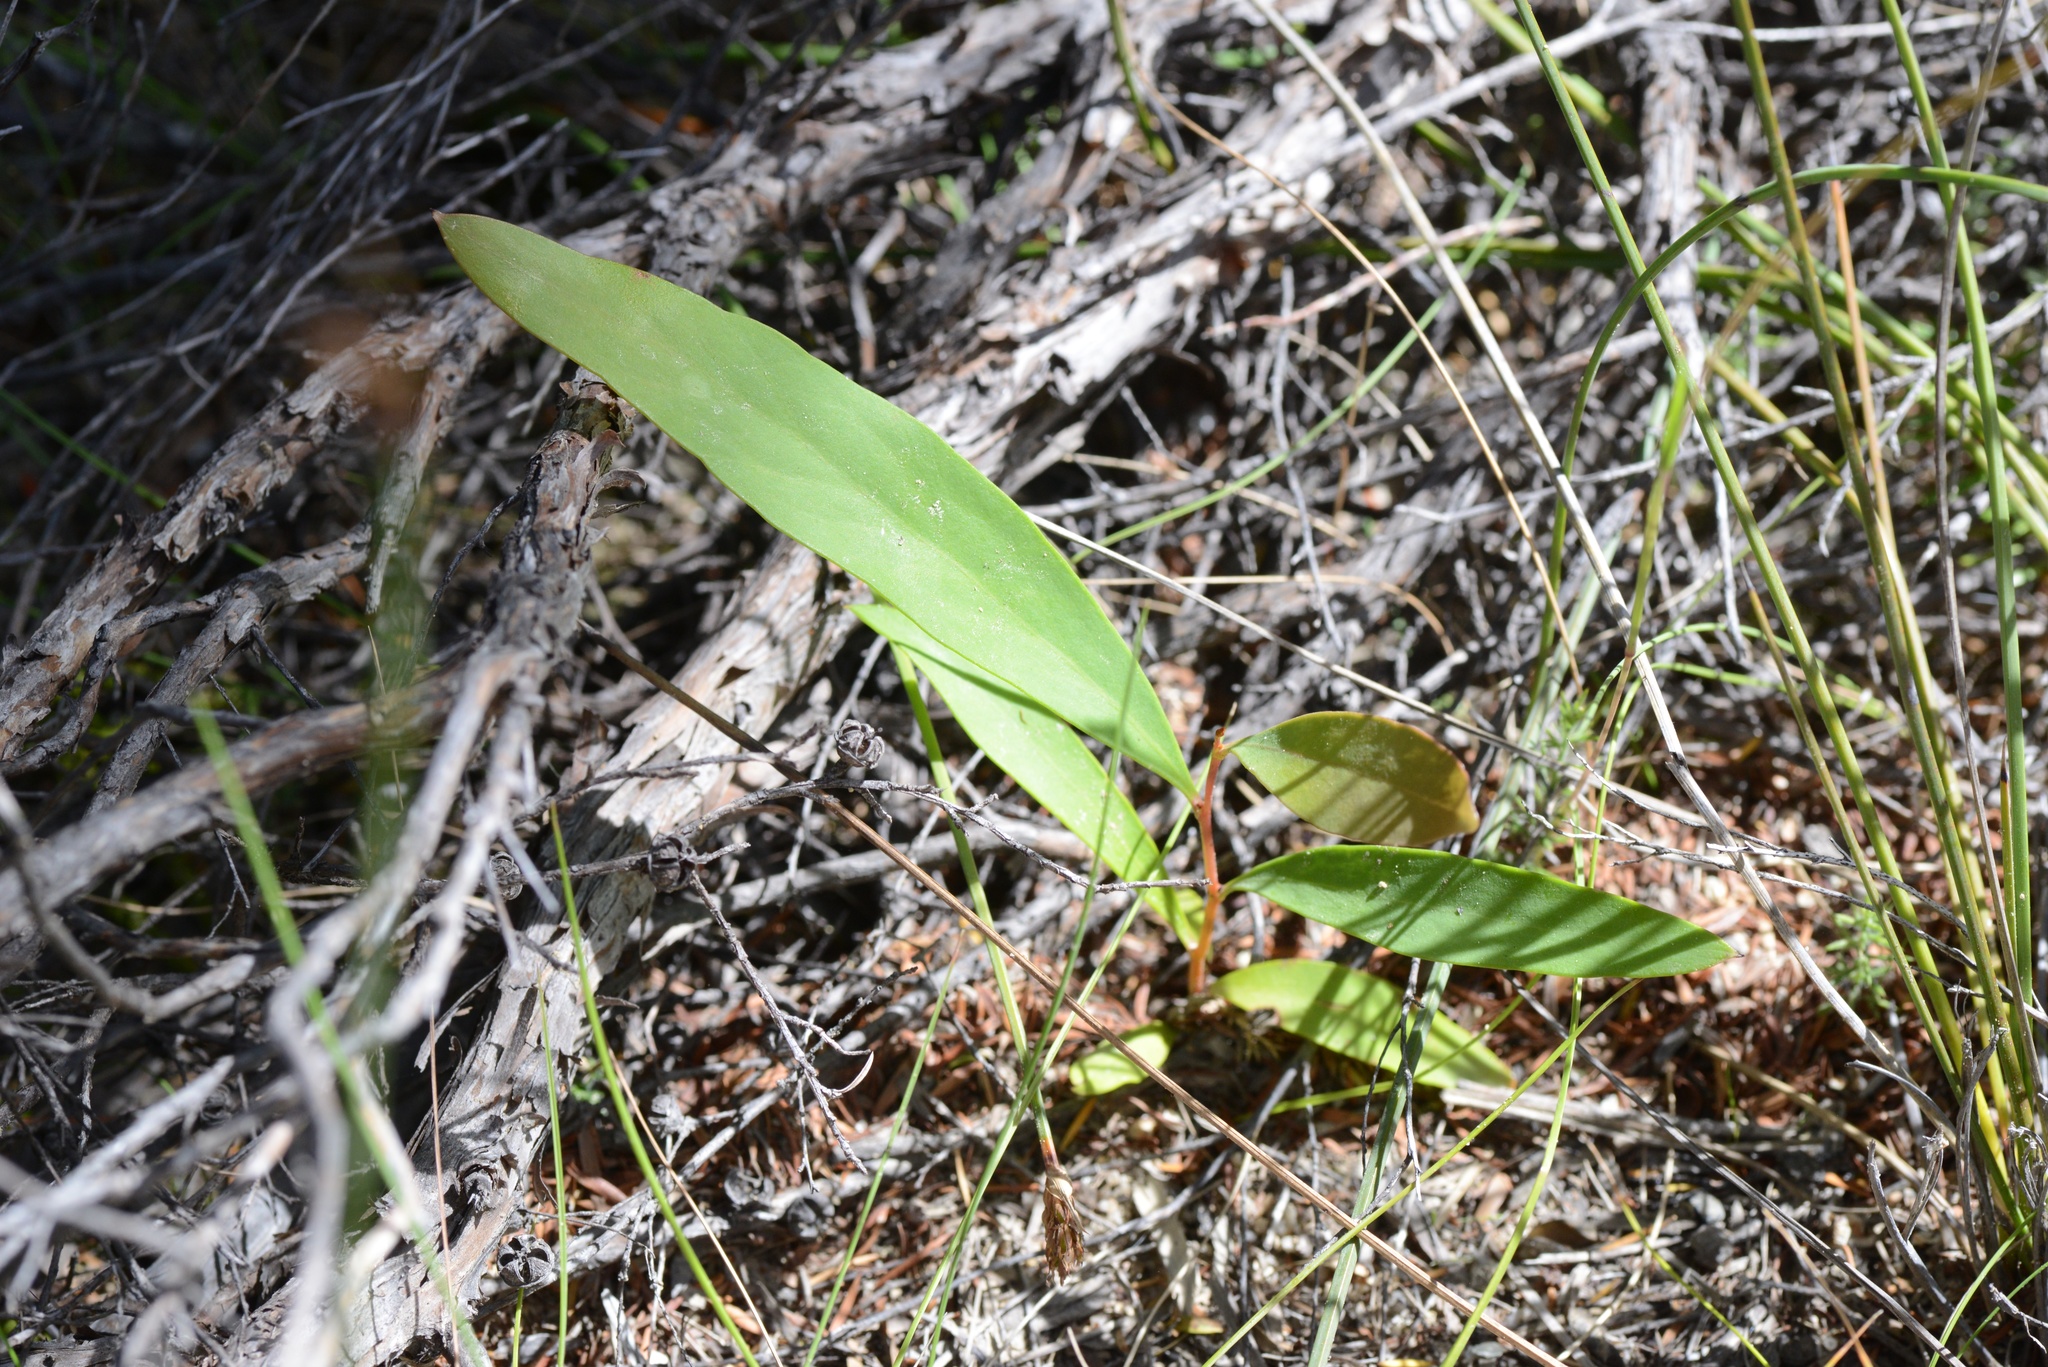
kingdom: Plantae
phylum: Tracheophyta
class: Magnoliopsida
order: Proteales
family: Proteaceae
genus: Hakea
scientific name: Hakea salicifolia
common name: Willow hakea
